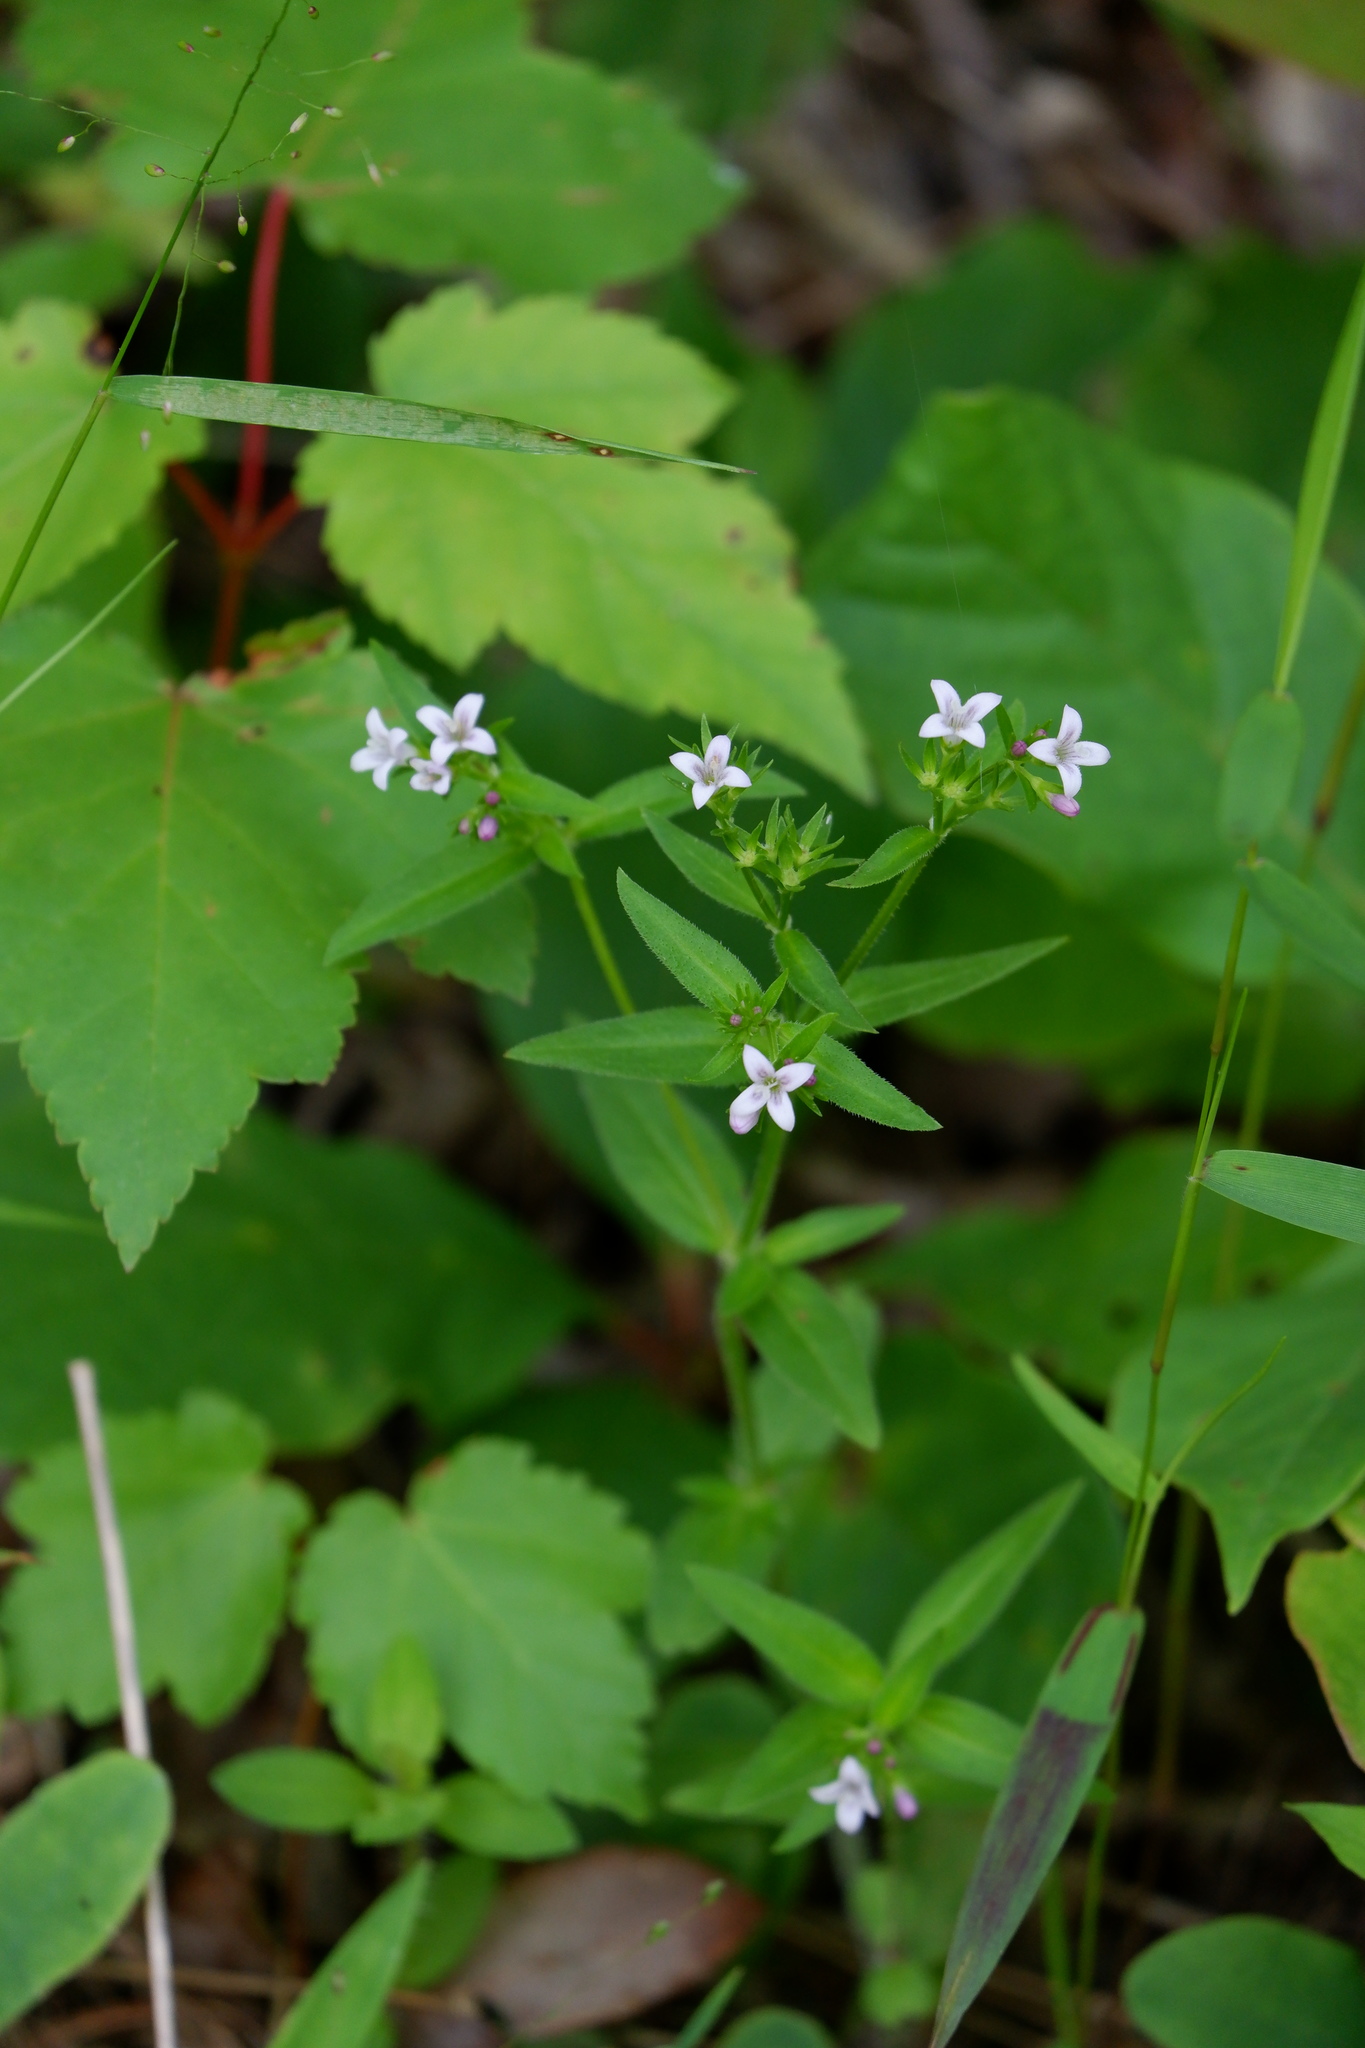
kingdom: Plantae
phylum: Tracheophyta
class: Magnoliopsida
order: Gentianales
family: Rubiaceae
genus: Houstonia
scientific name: Houstonia purpurea
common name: Summer bluet
